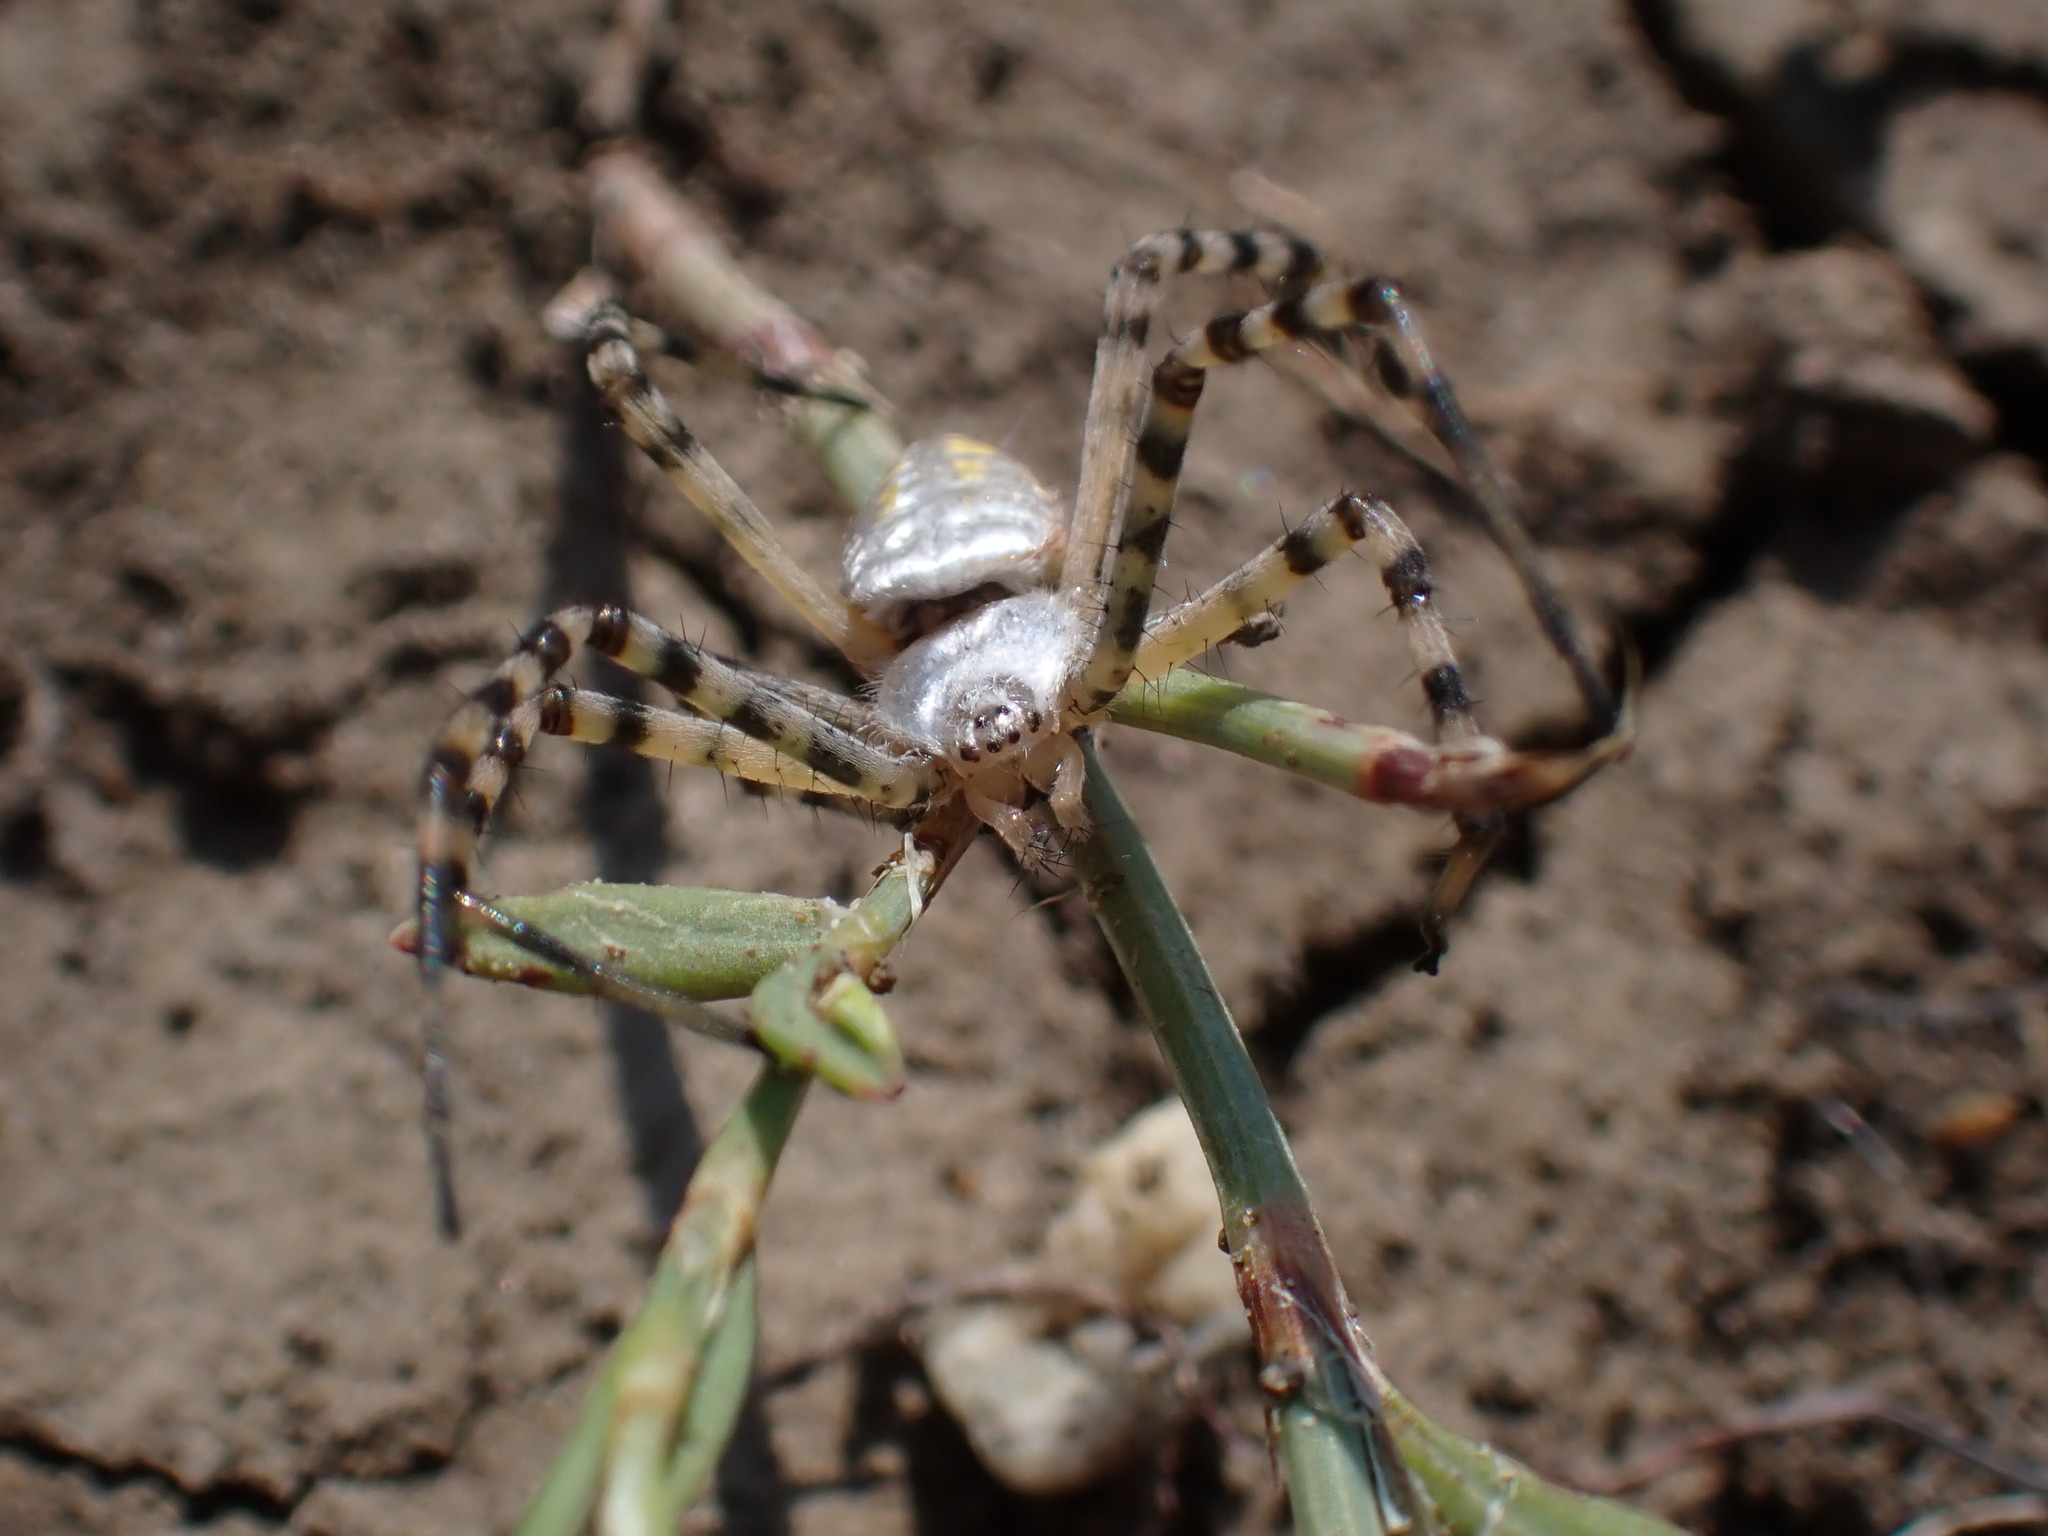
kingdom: Animalia
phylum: Arthropoda
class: Arachnida
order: Araneae
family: Araneidae
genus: Argiope
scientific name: Argiope trifasciata
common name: Banded garden spider
